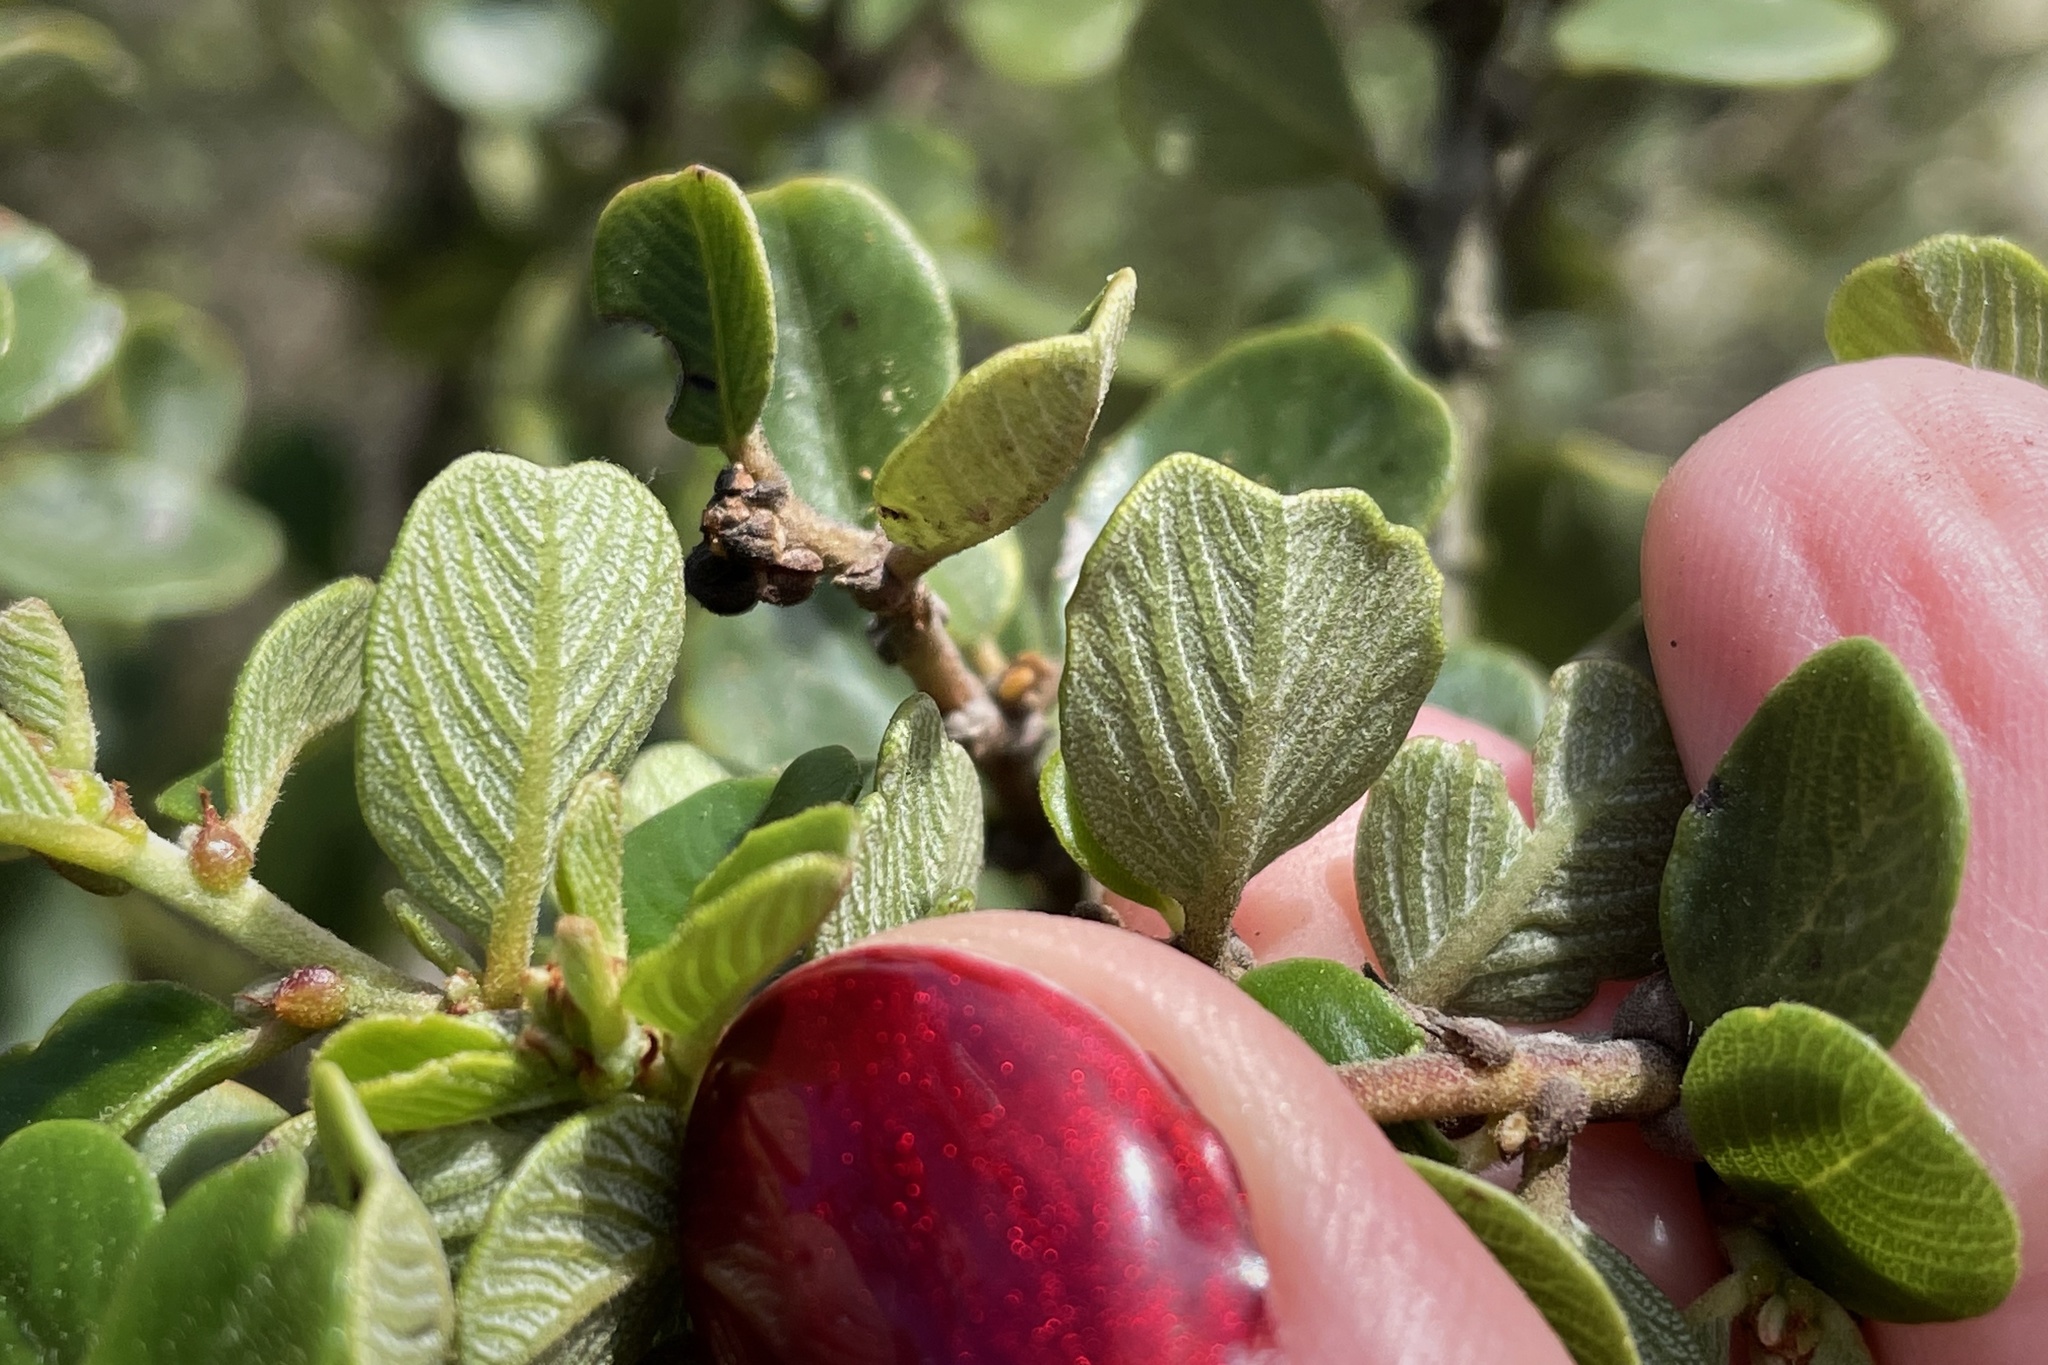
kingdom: Plantae
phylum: Tracheophyta
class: Magnoliopsida
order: Rosales
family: Rhamnaceae
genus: Ceanothus
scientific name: Ceanothus verrucosus
